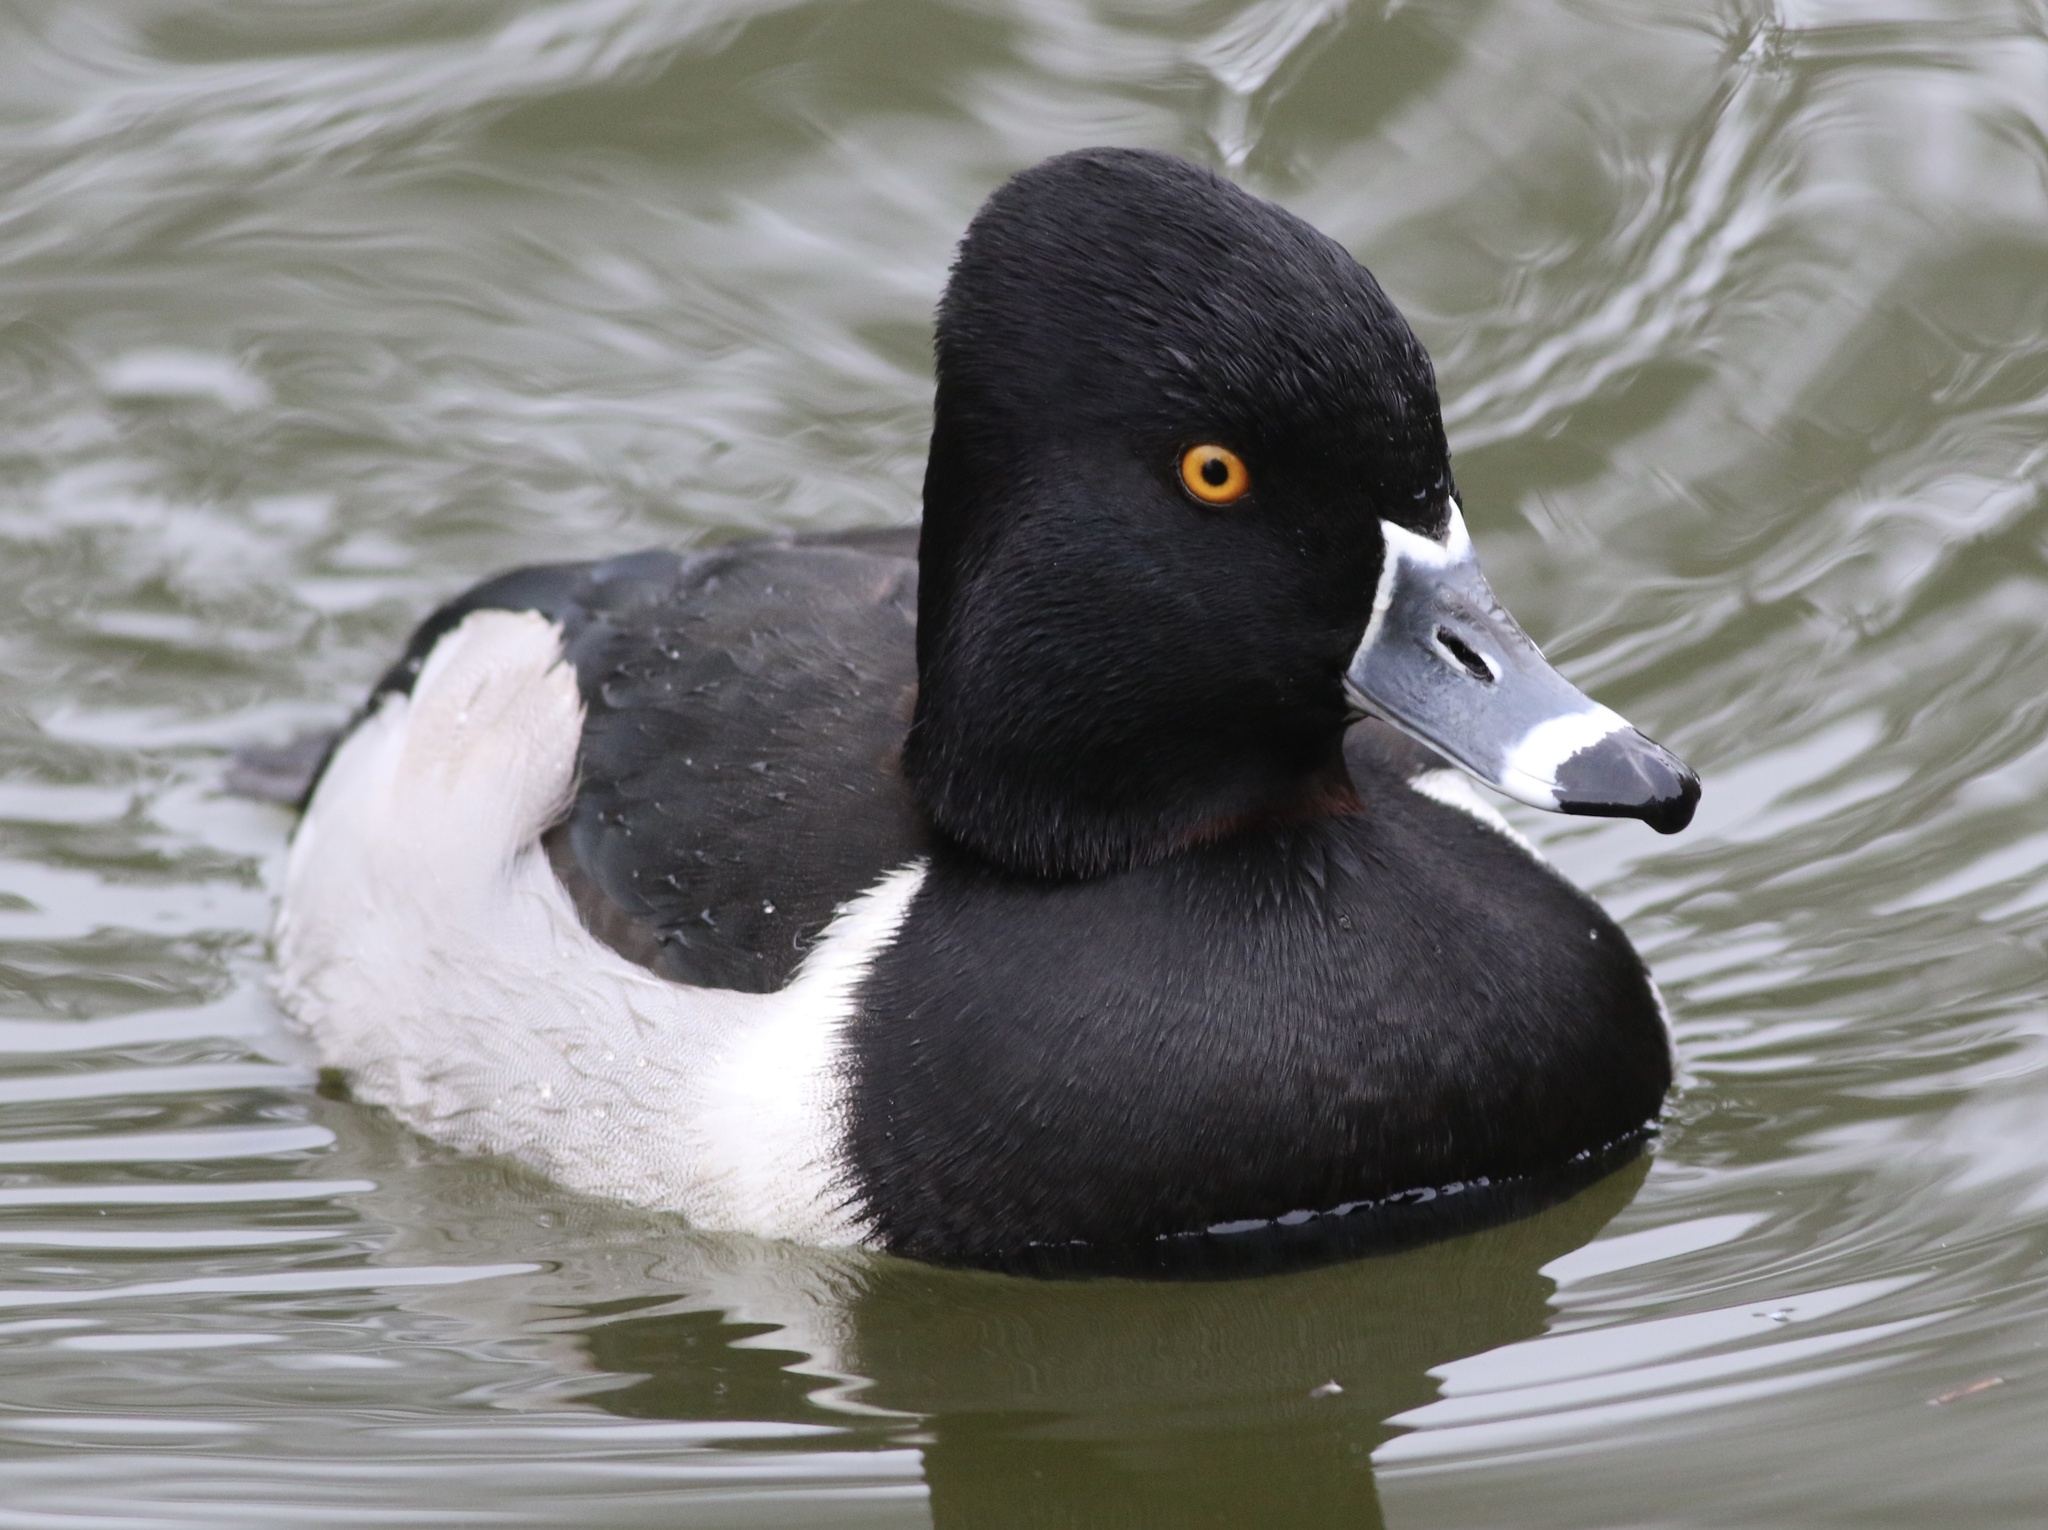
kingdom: Animalia
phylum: Chordata
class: Aves
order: Anseriformes
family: Anatidae
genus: Aythya
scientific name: Aythya collaris
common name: Ring-necked duck
